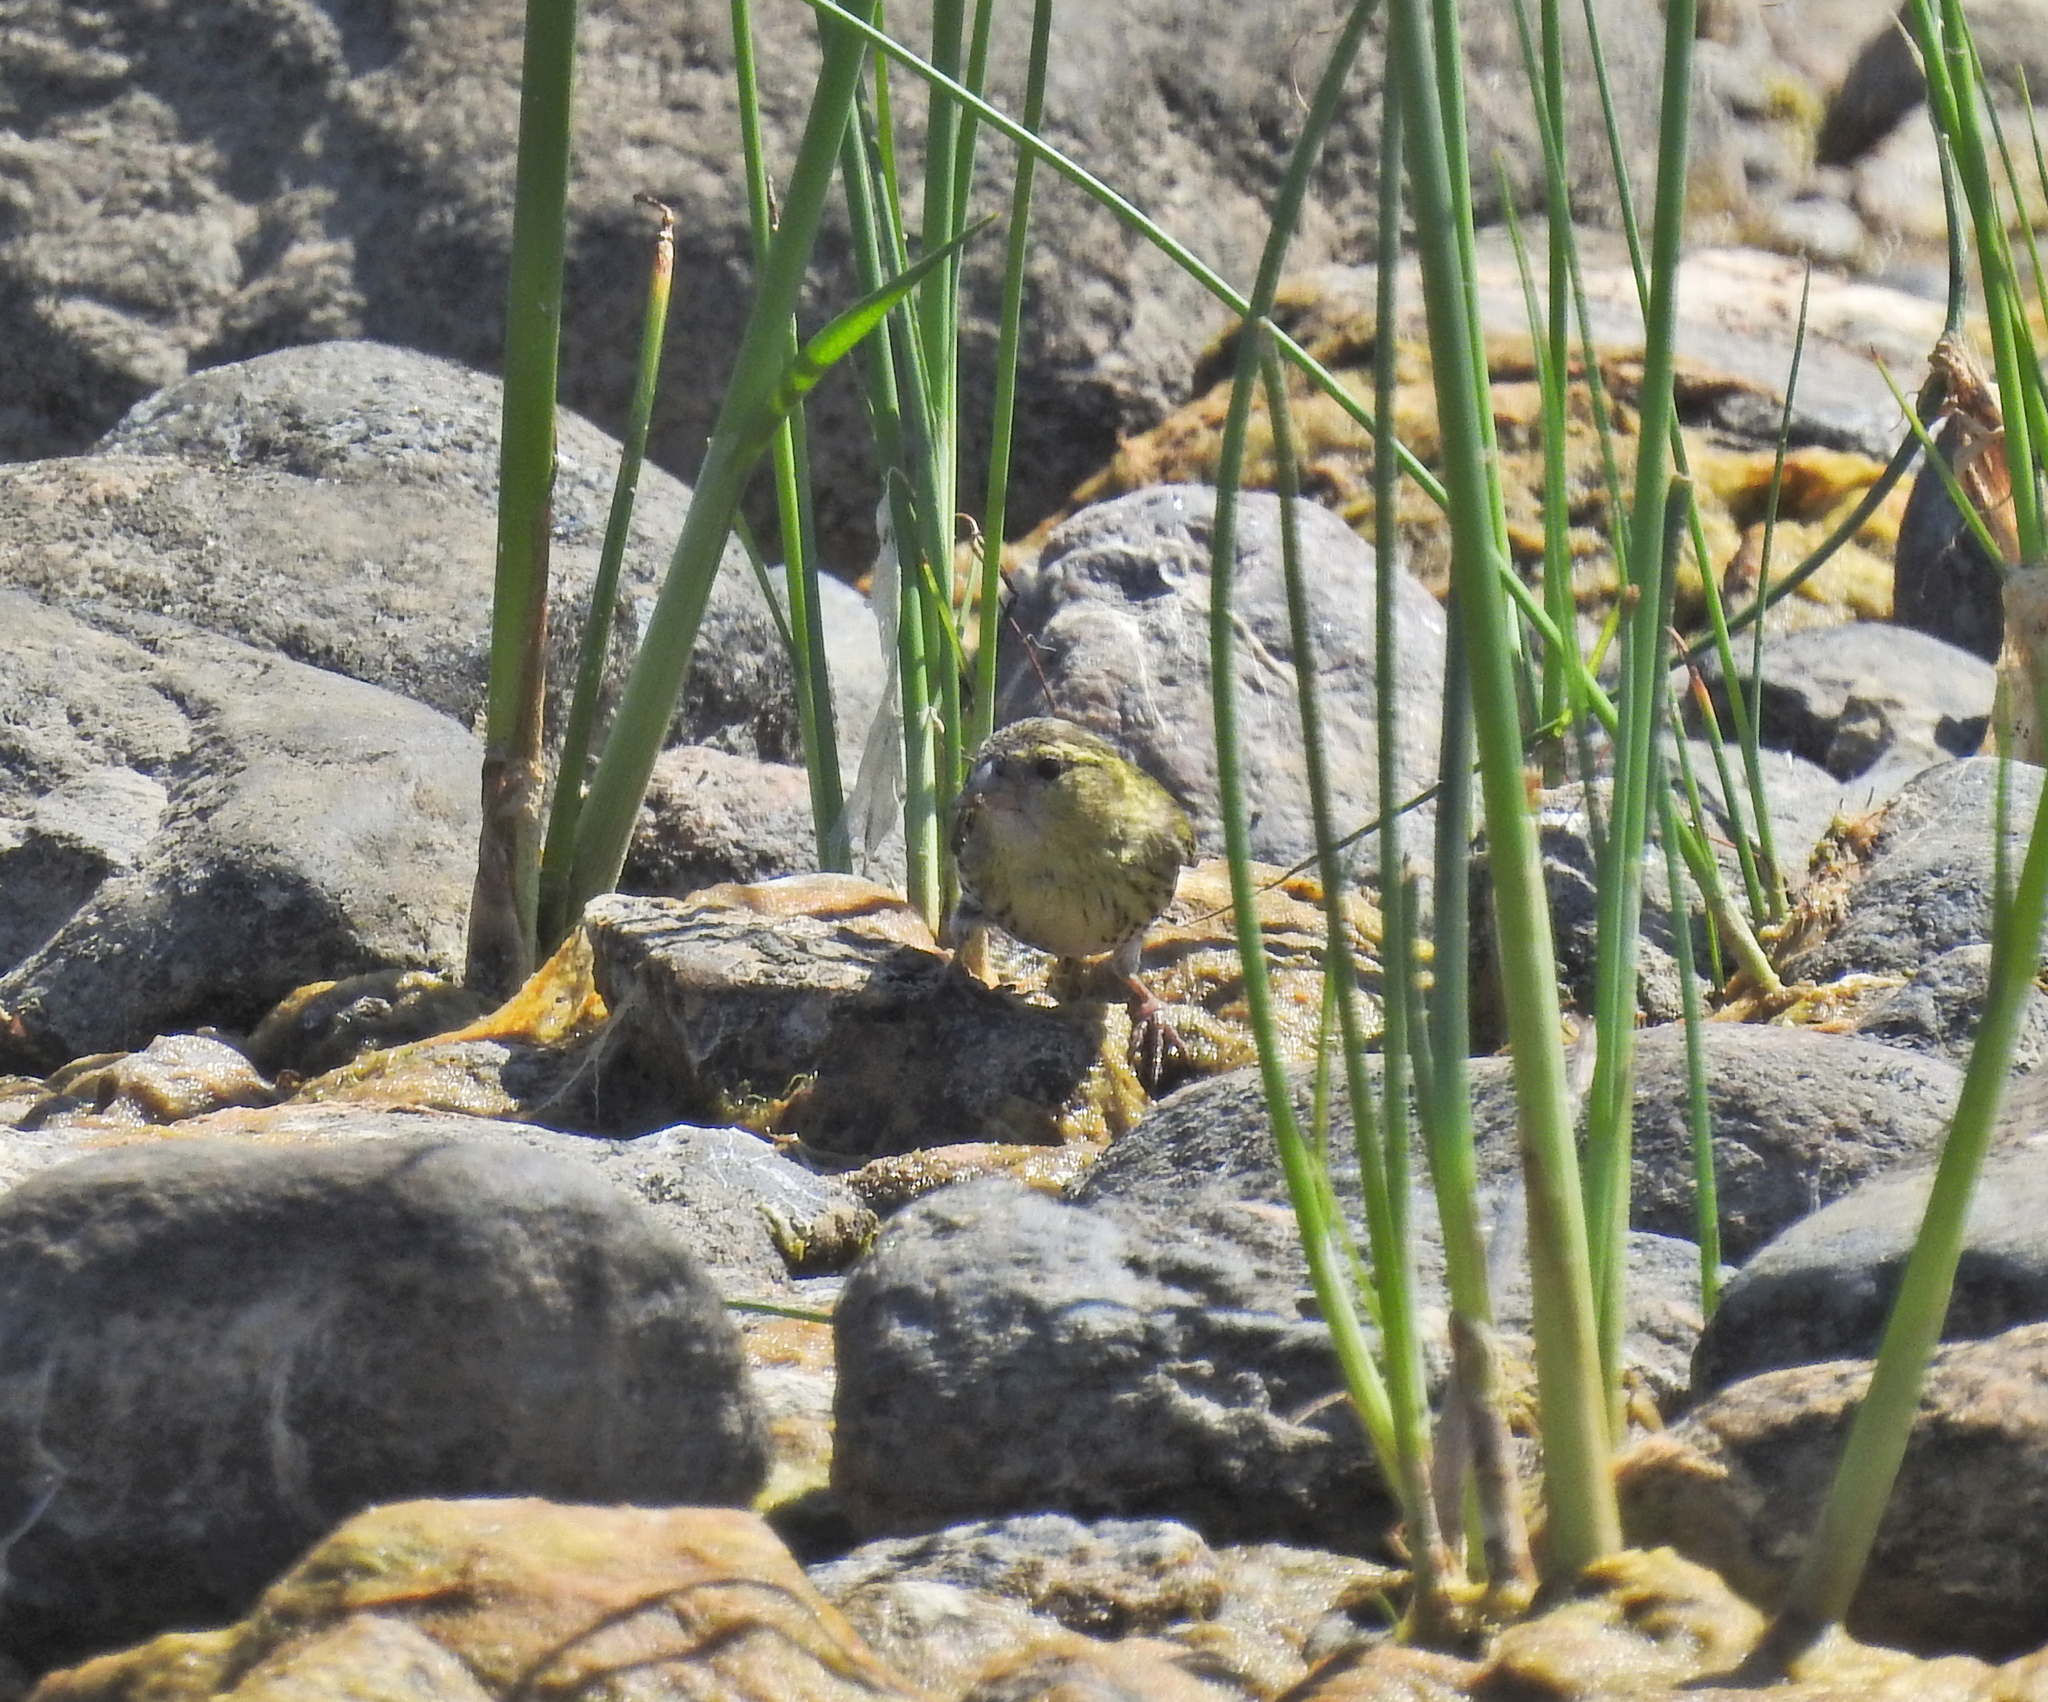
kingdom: Animalia
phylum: Chordata
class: Aves
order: Passeriformes
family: Fringillidae
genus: Spinus
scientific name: Spinus spinus
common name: Eurasian siskin
